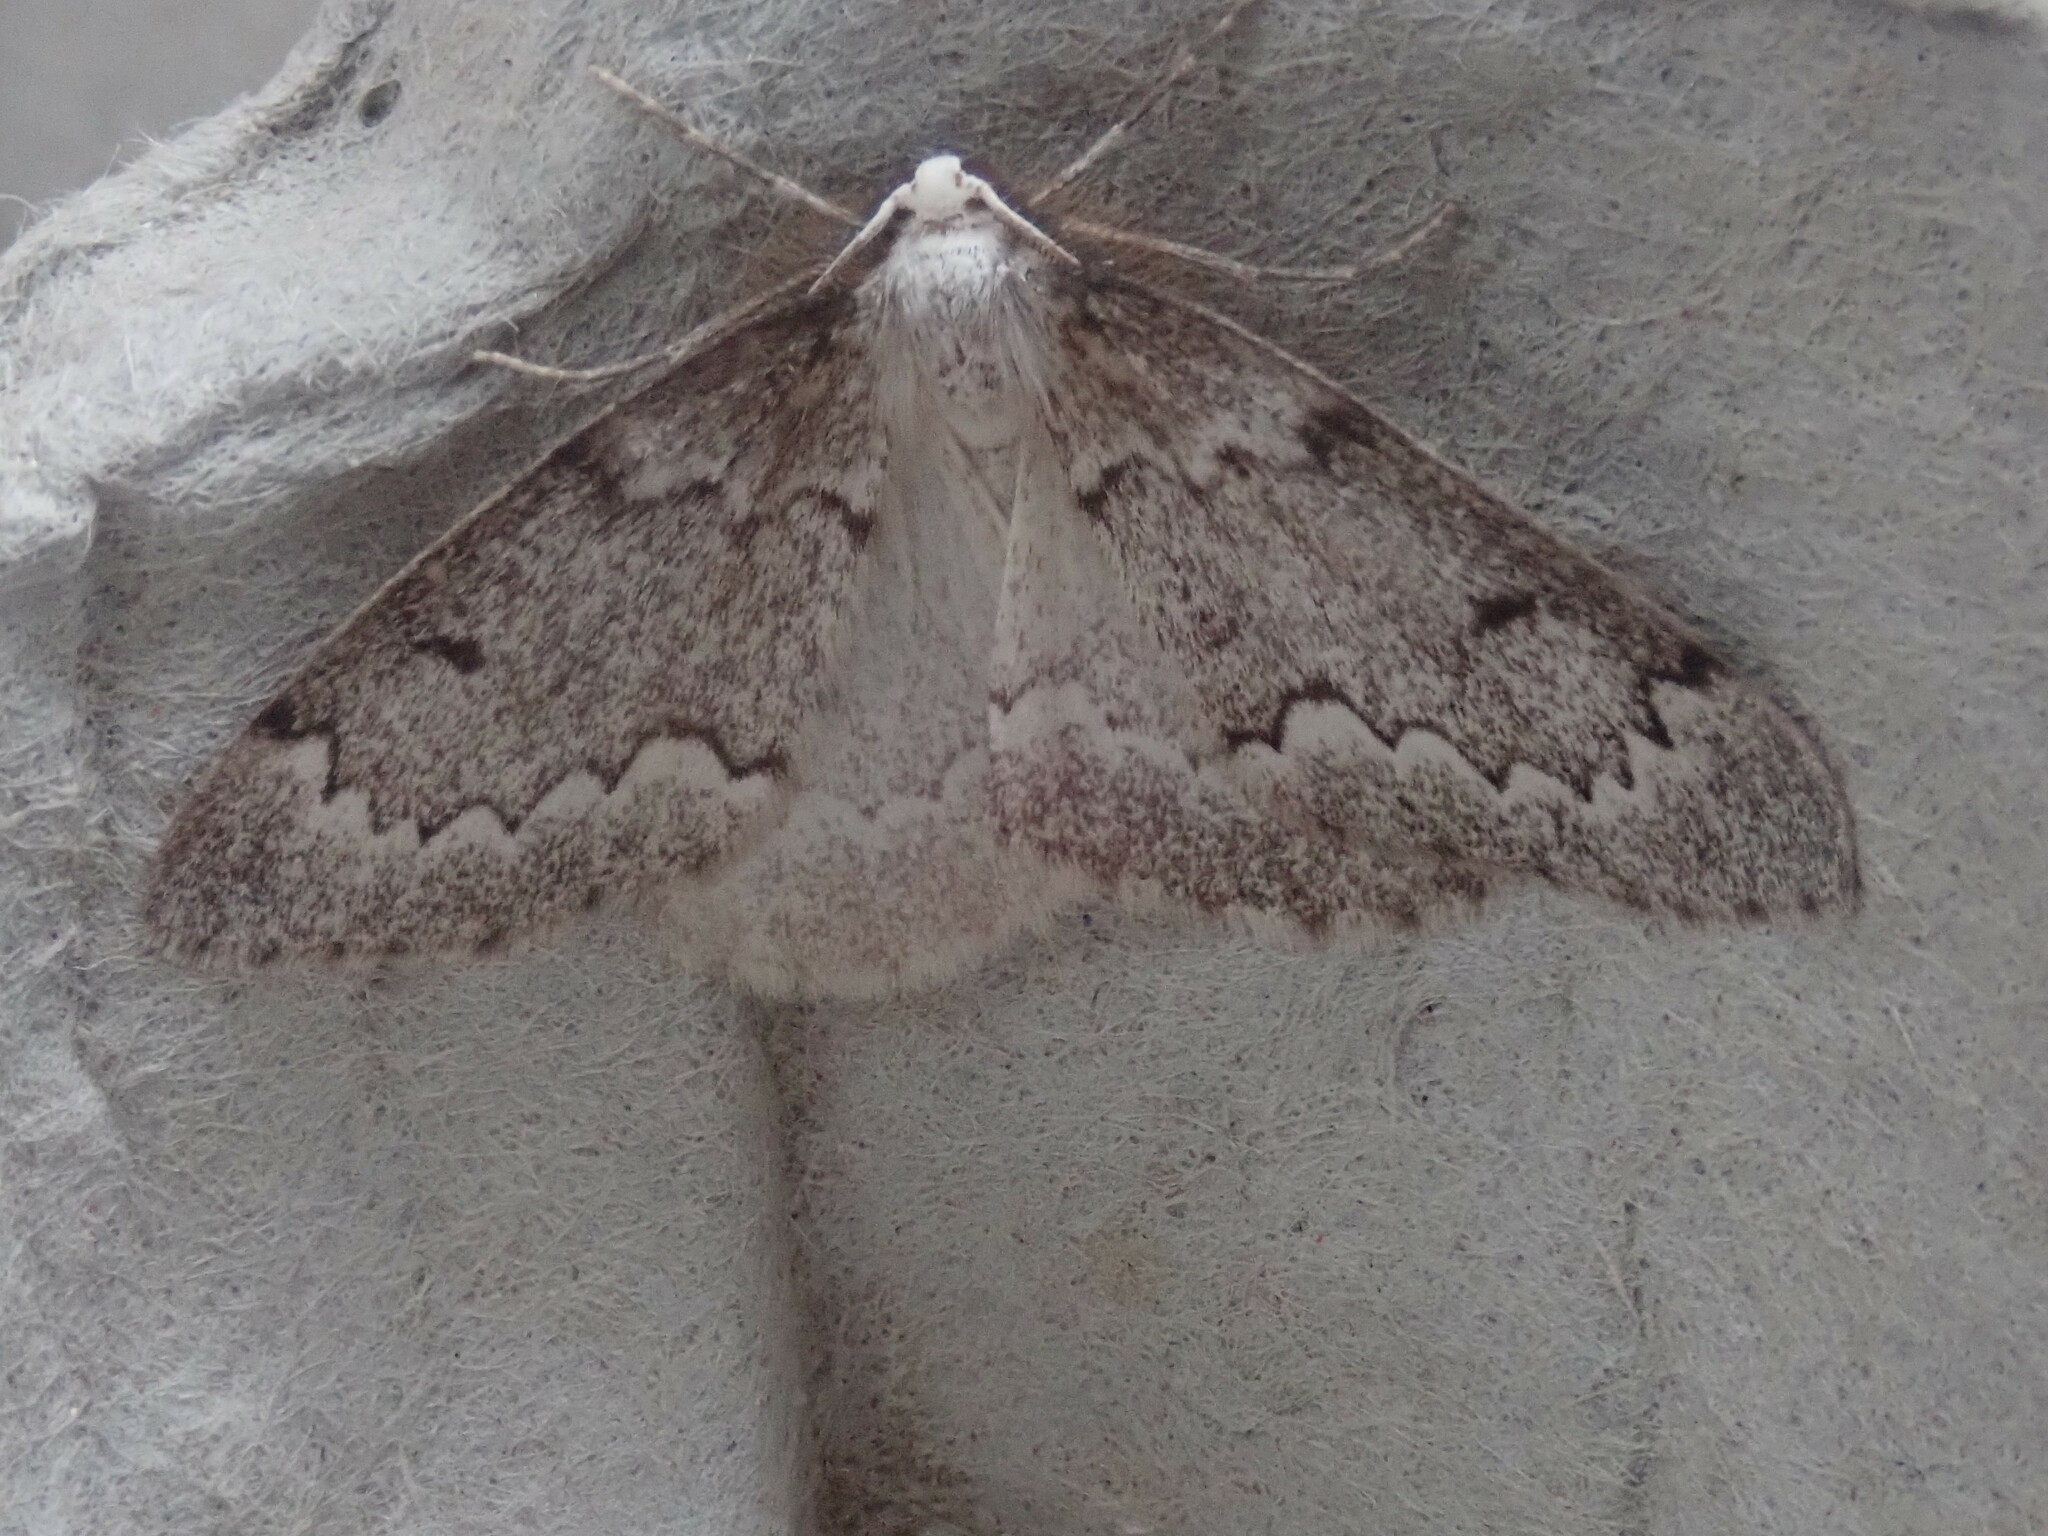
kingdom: Animalia
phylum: Arthropoda
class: Insecta
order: Lepidoptera
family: Geometridae
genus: Nepytia
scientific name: Nepytia canosaria
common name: False hemlock looper
